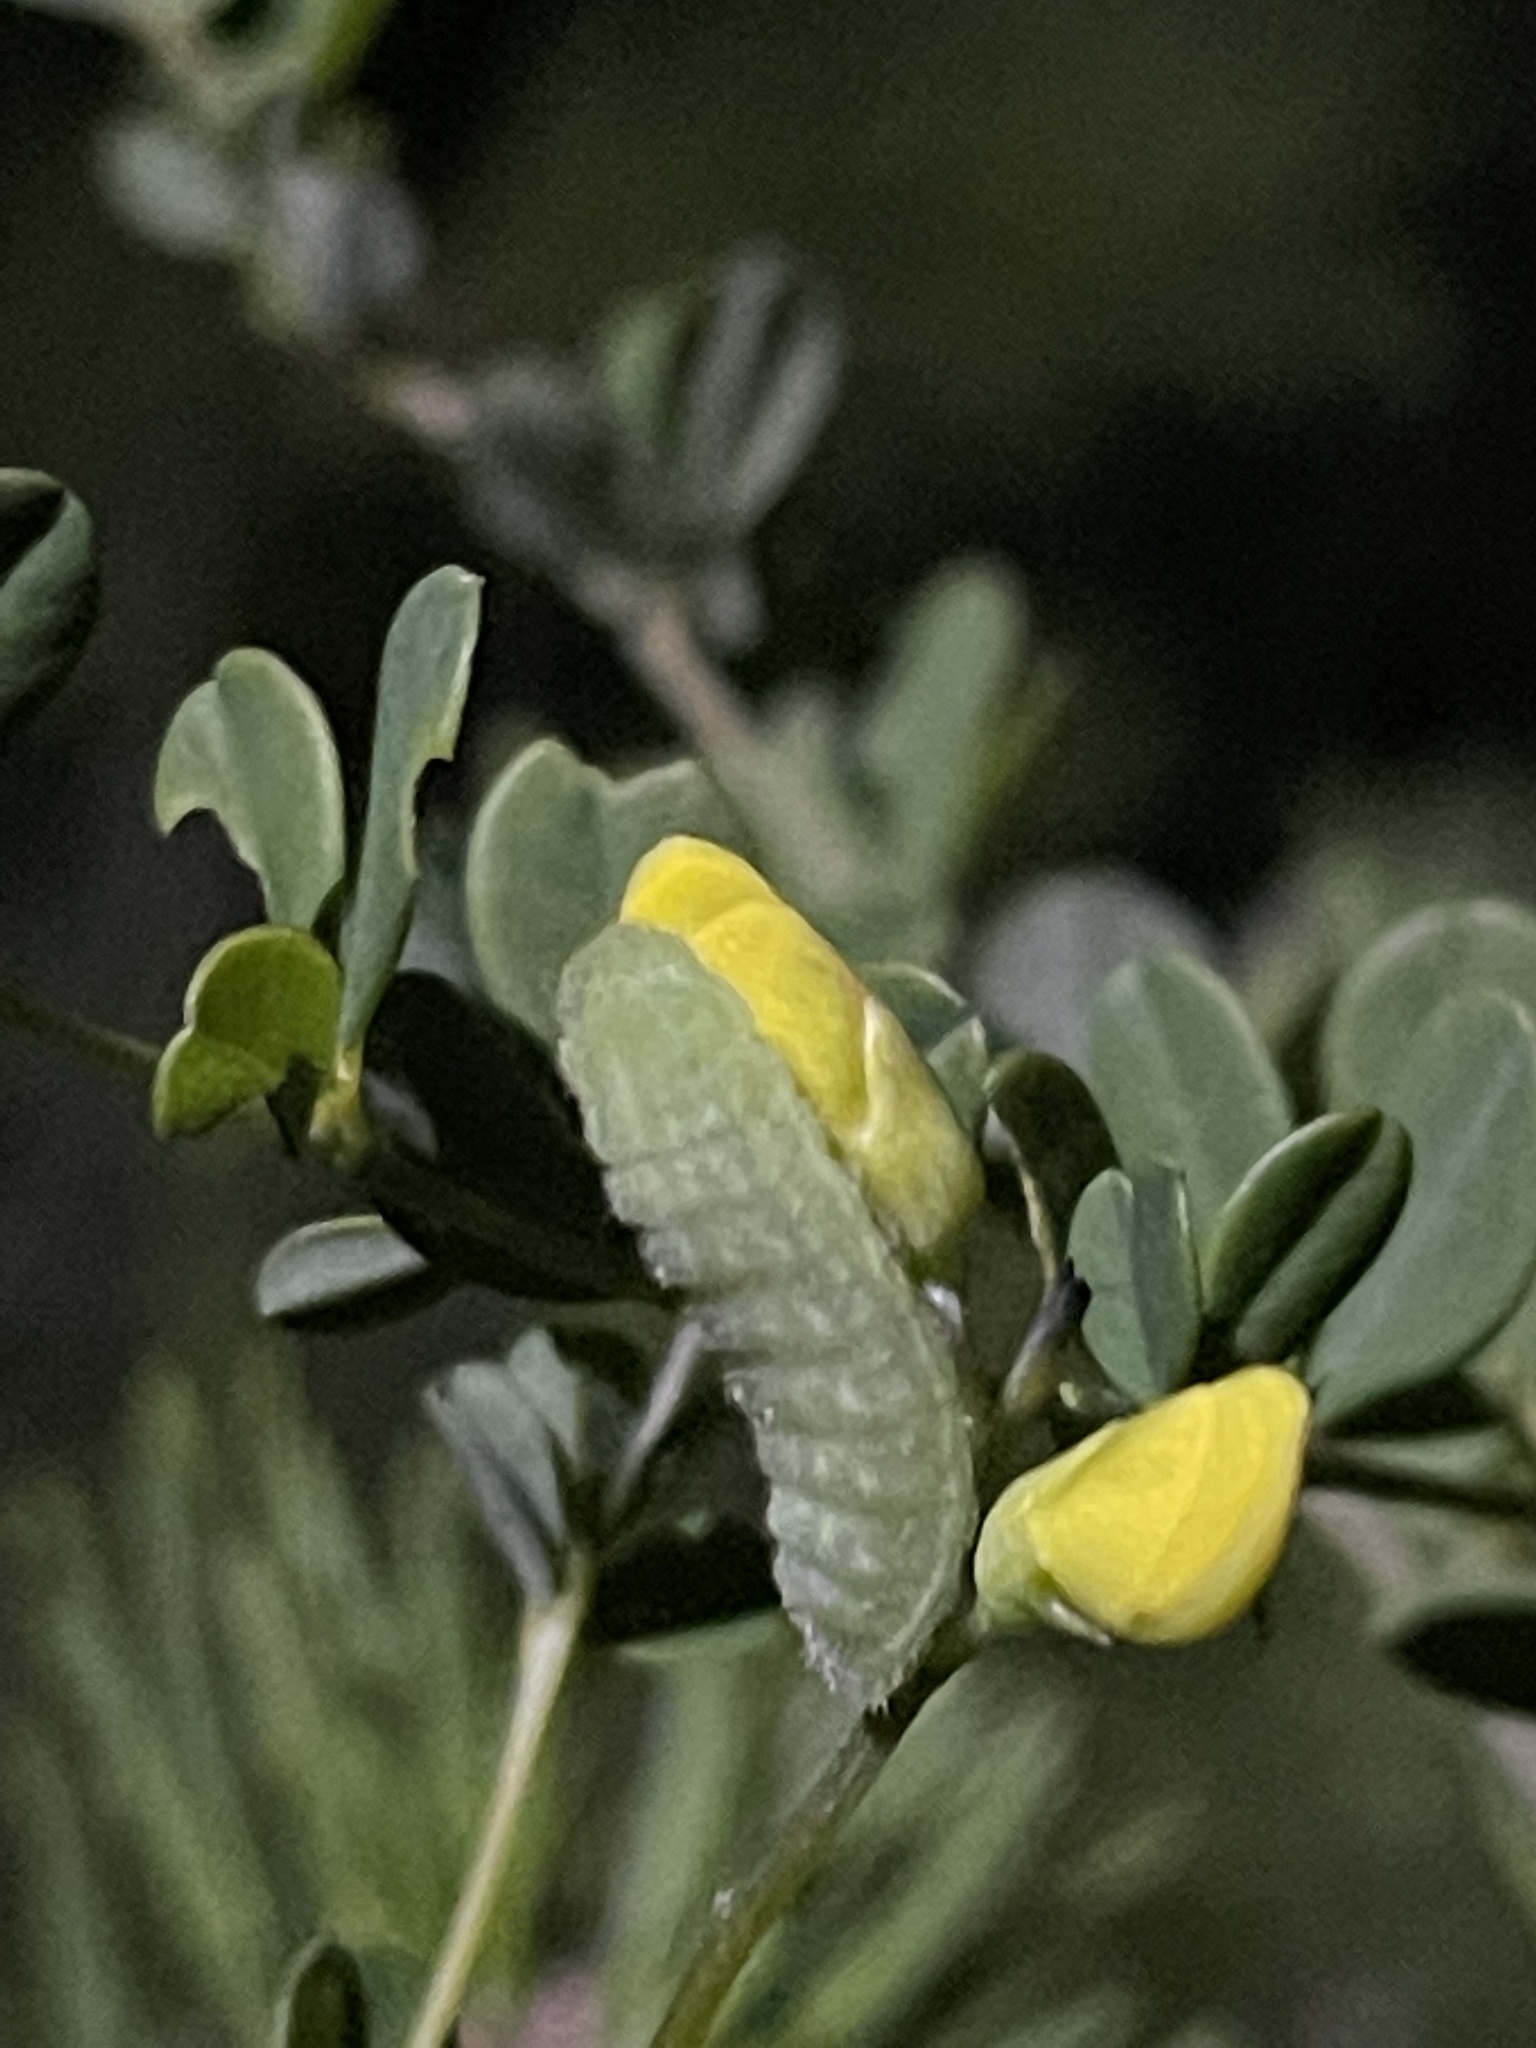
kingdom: Animalia
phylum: Arthropoda
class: Insecta
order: Lepidoptera
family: Lycaenidae
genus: Thecla
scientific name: Thecla irus
